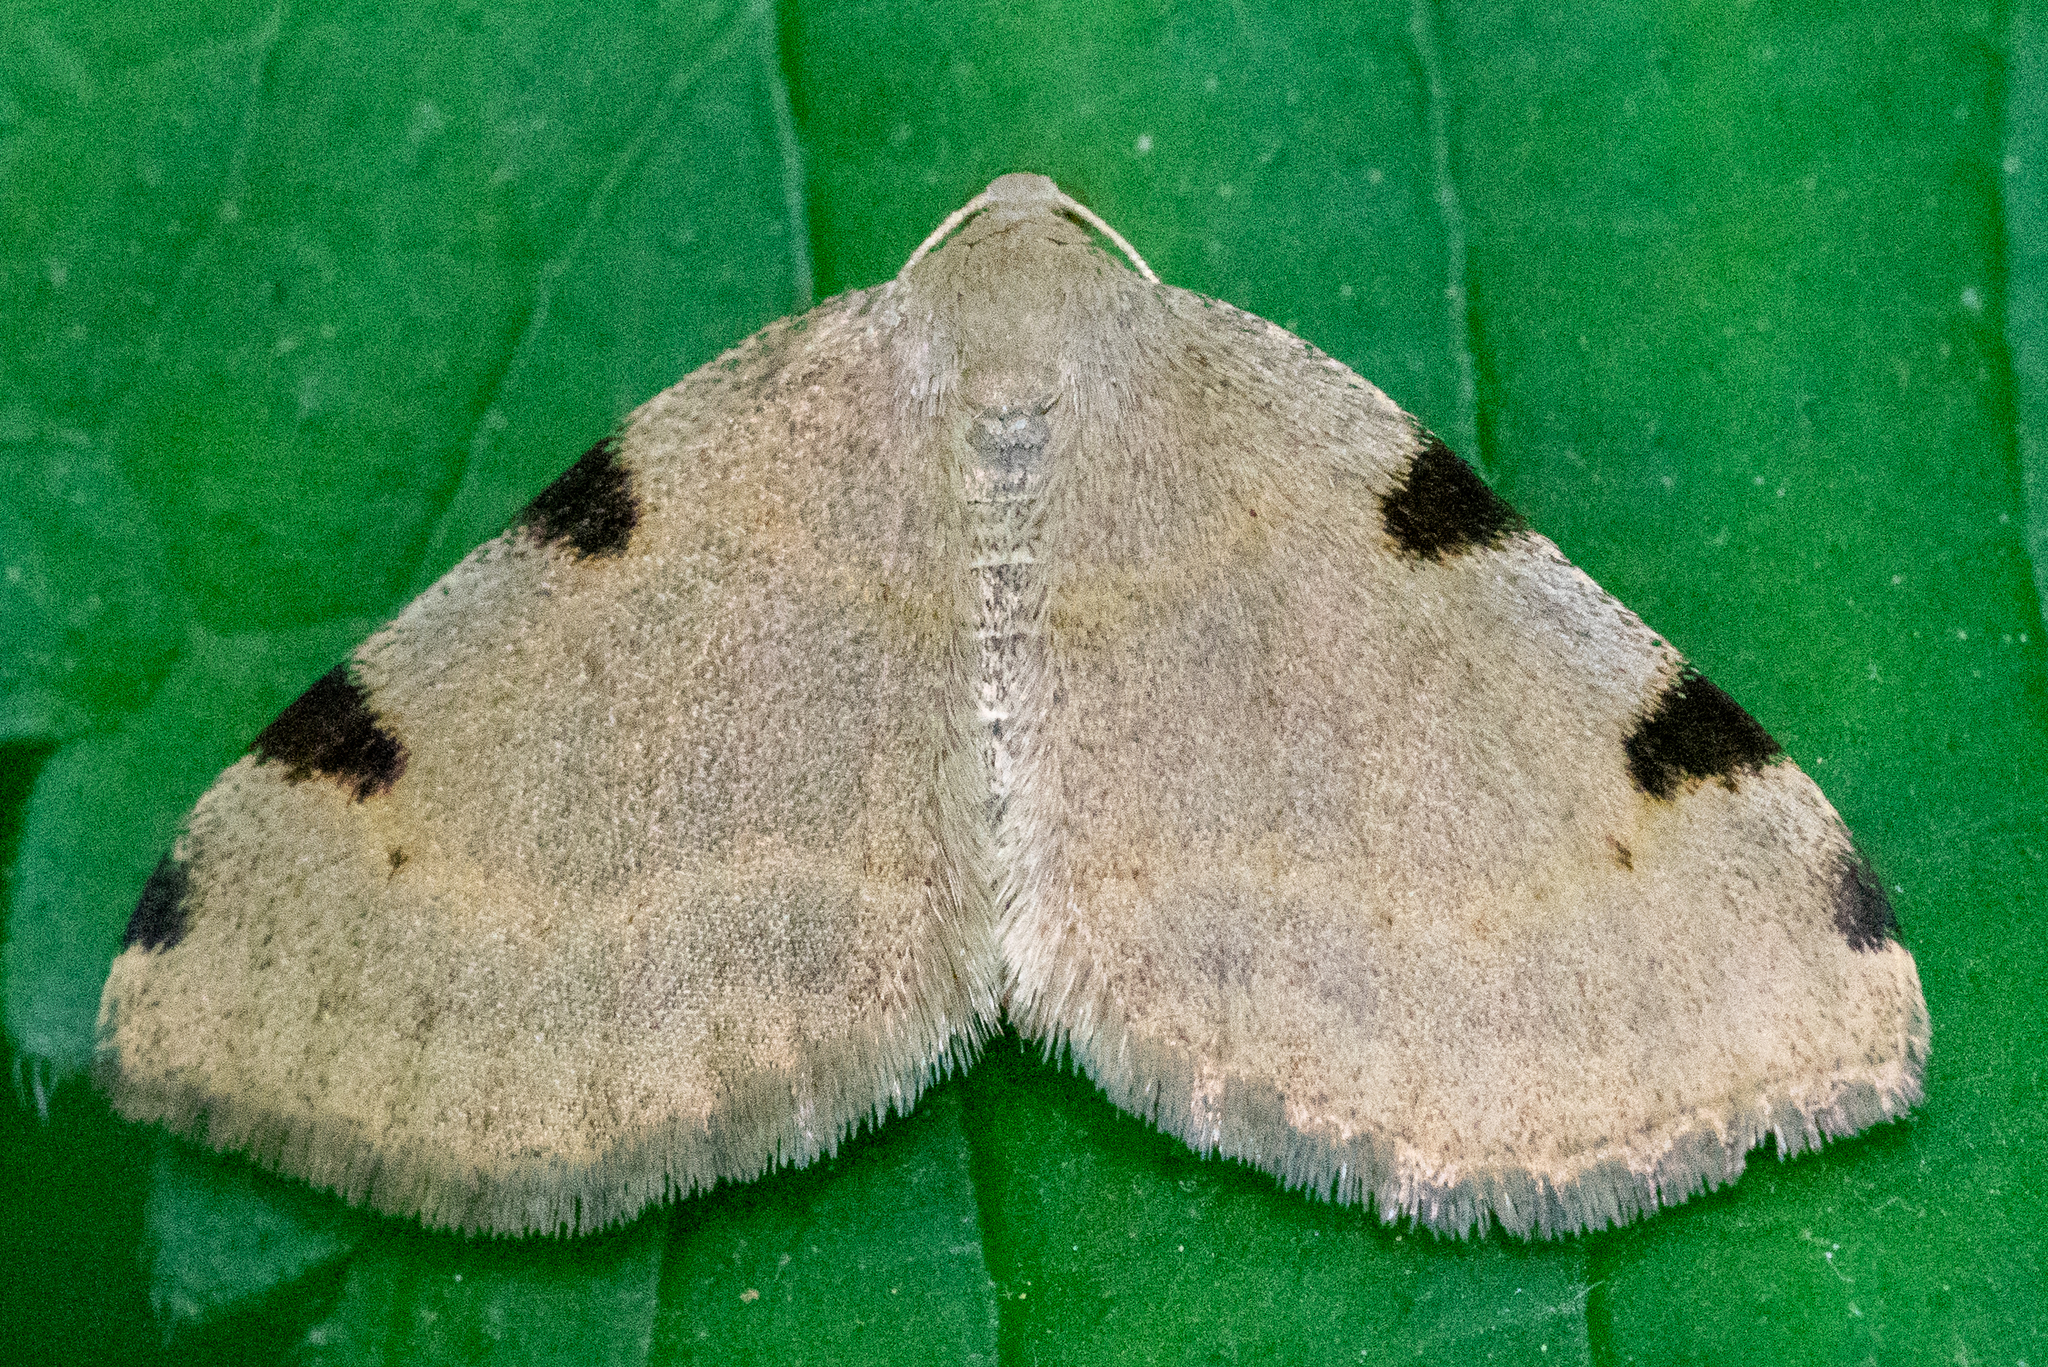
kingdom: Animalia
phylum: Arthropoda
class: Insecta
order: Lepidoptera
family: Geometridae
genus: Heterophleps
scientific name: Heterophleps triguttaria
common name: Three-spotted fillip
